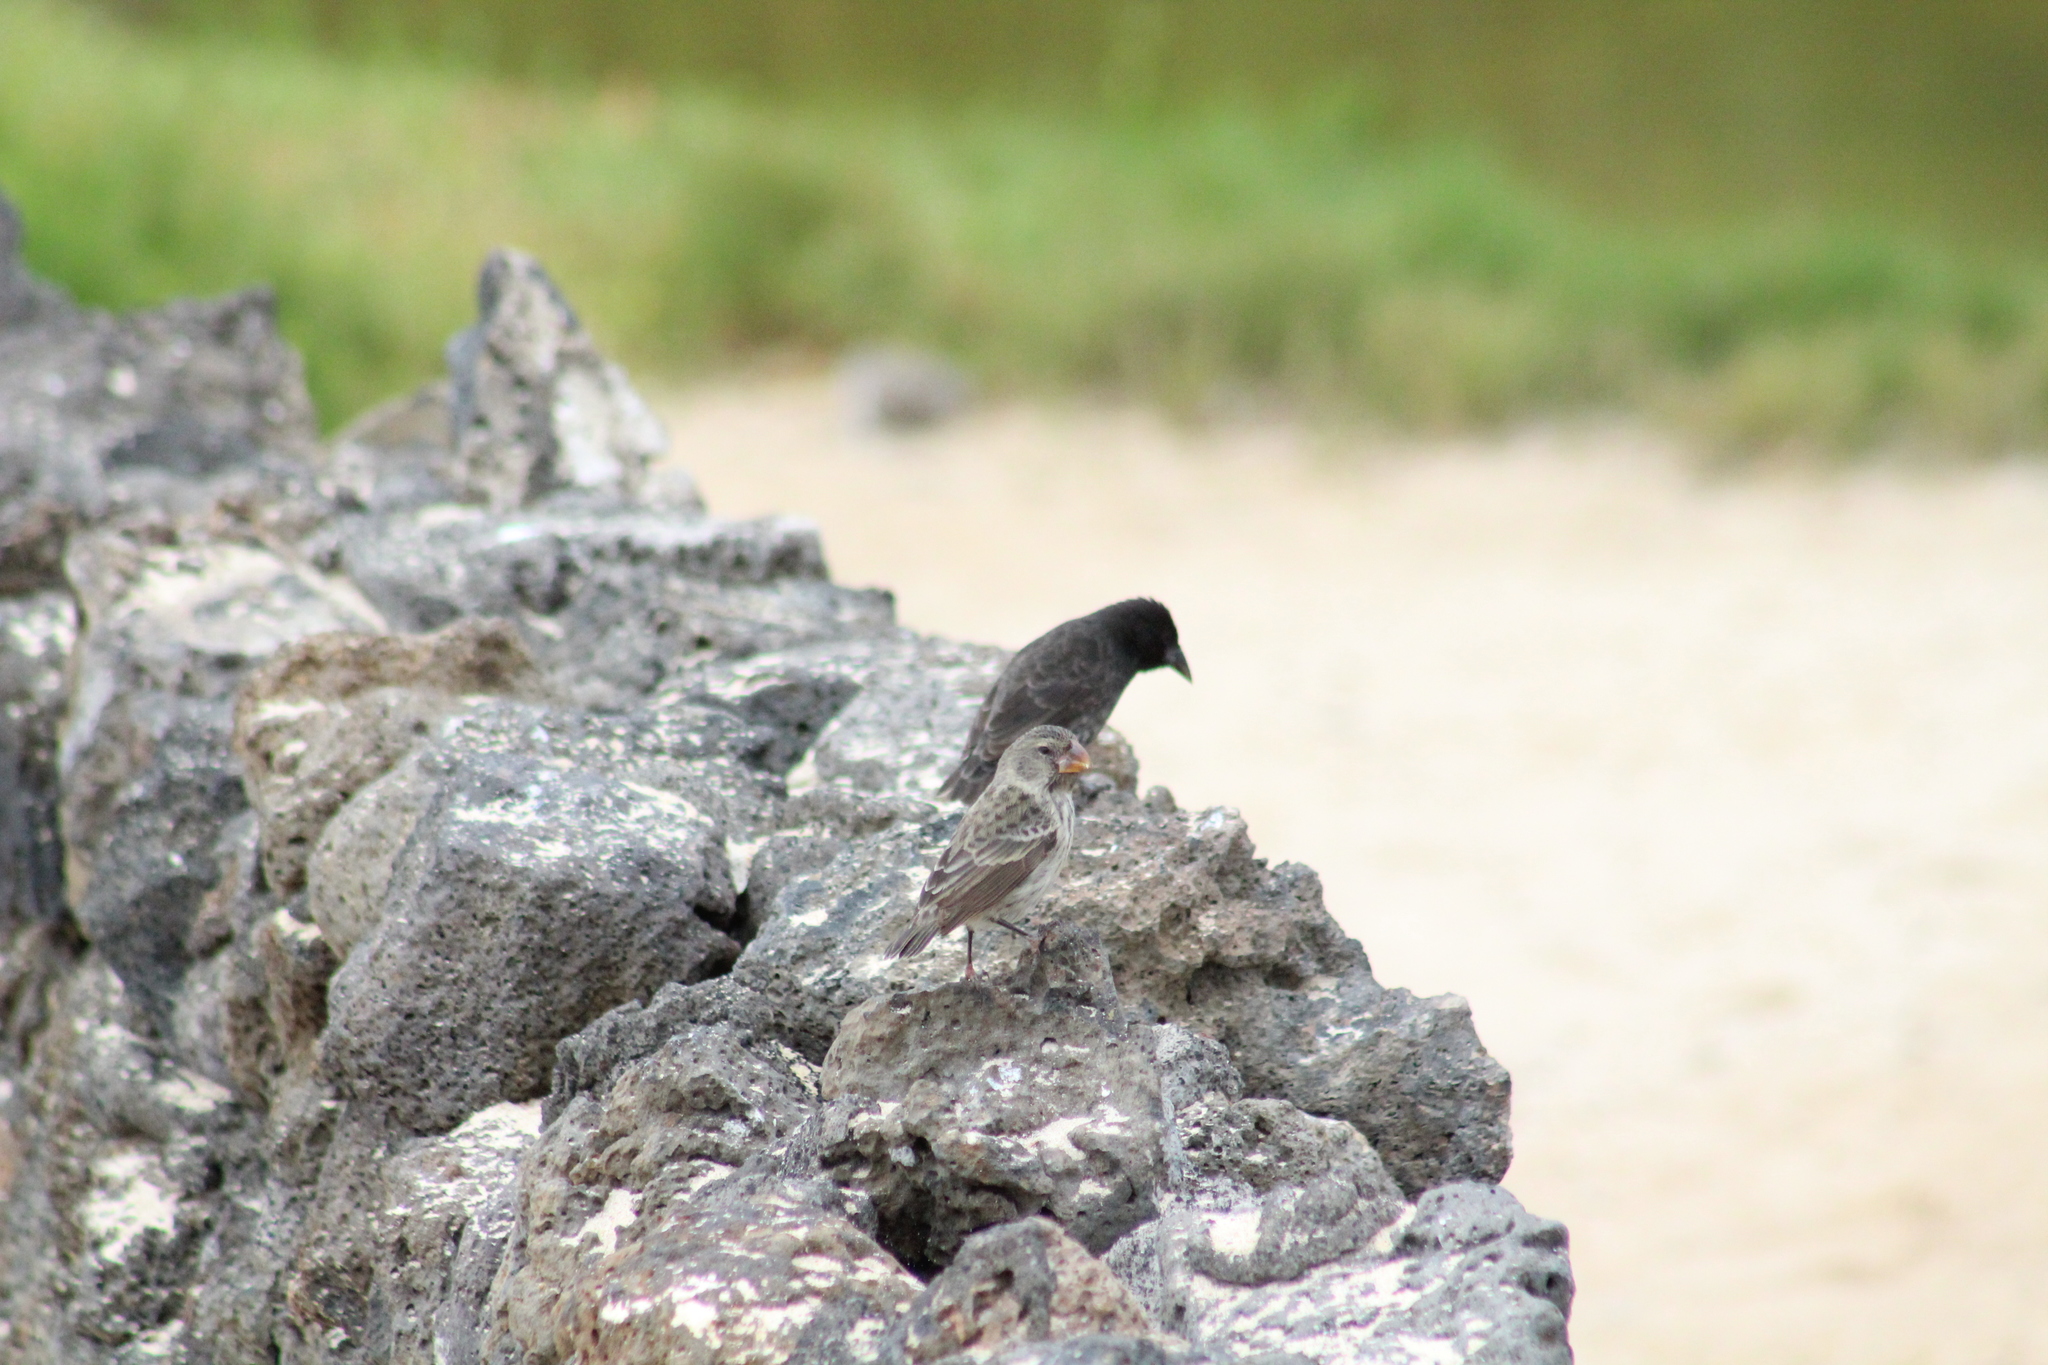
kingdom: Animalia
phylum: Chordata
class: Aves
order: Passeriformes
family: Thraupidae
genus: Geospiza
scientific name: Geospiza magnirostris
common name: Large ground-finch
